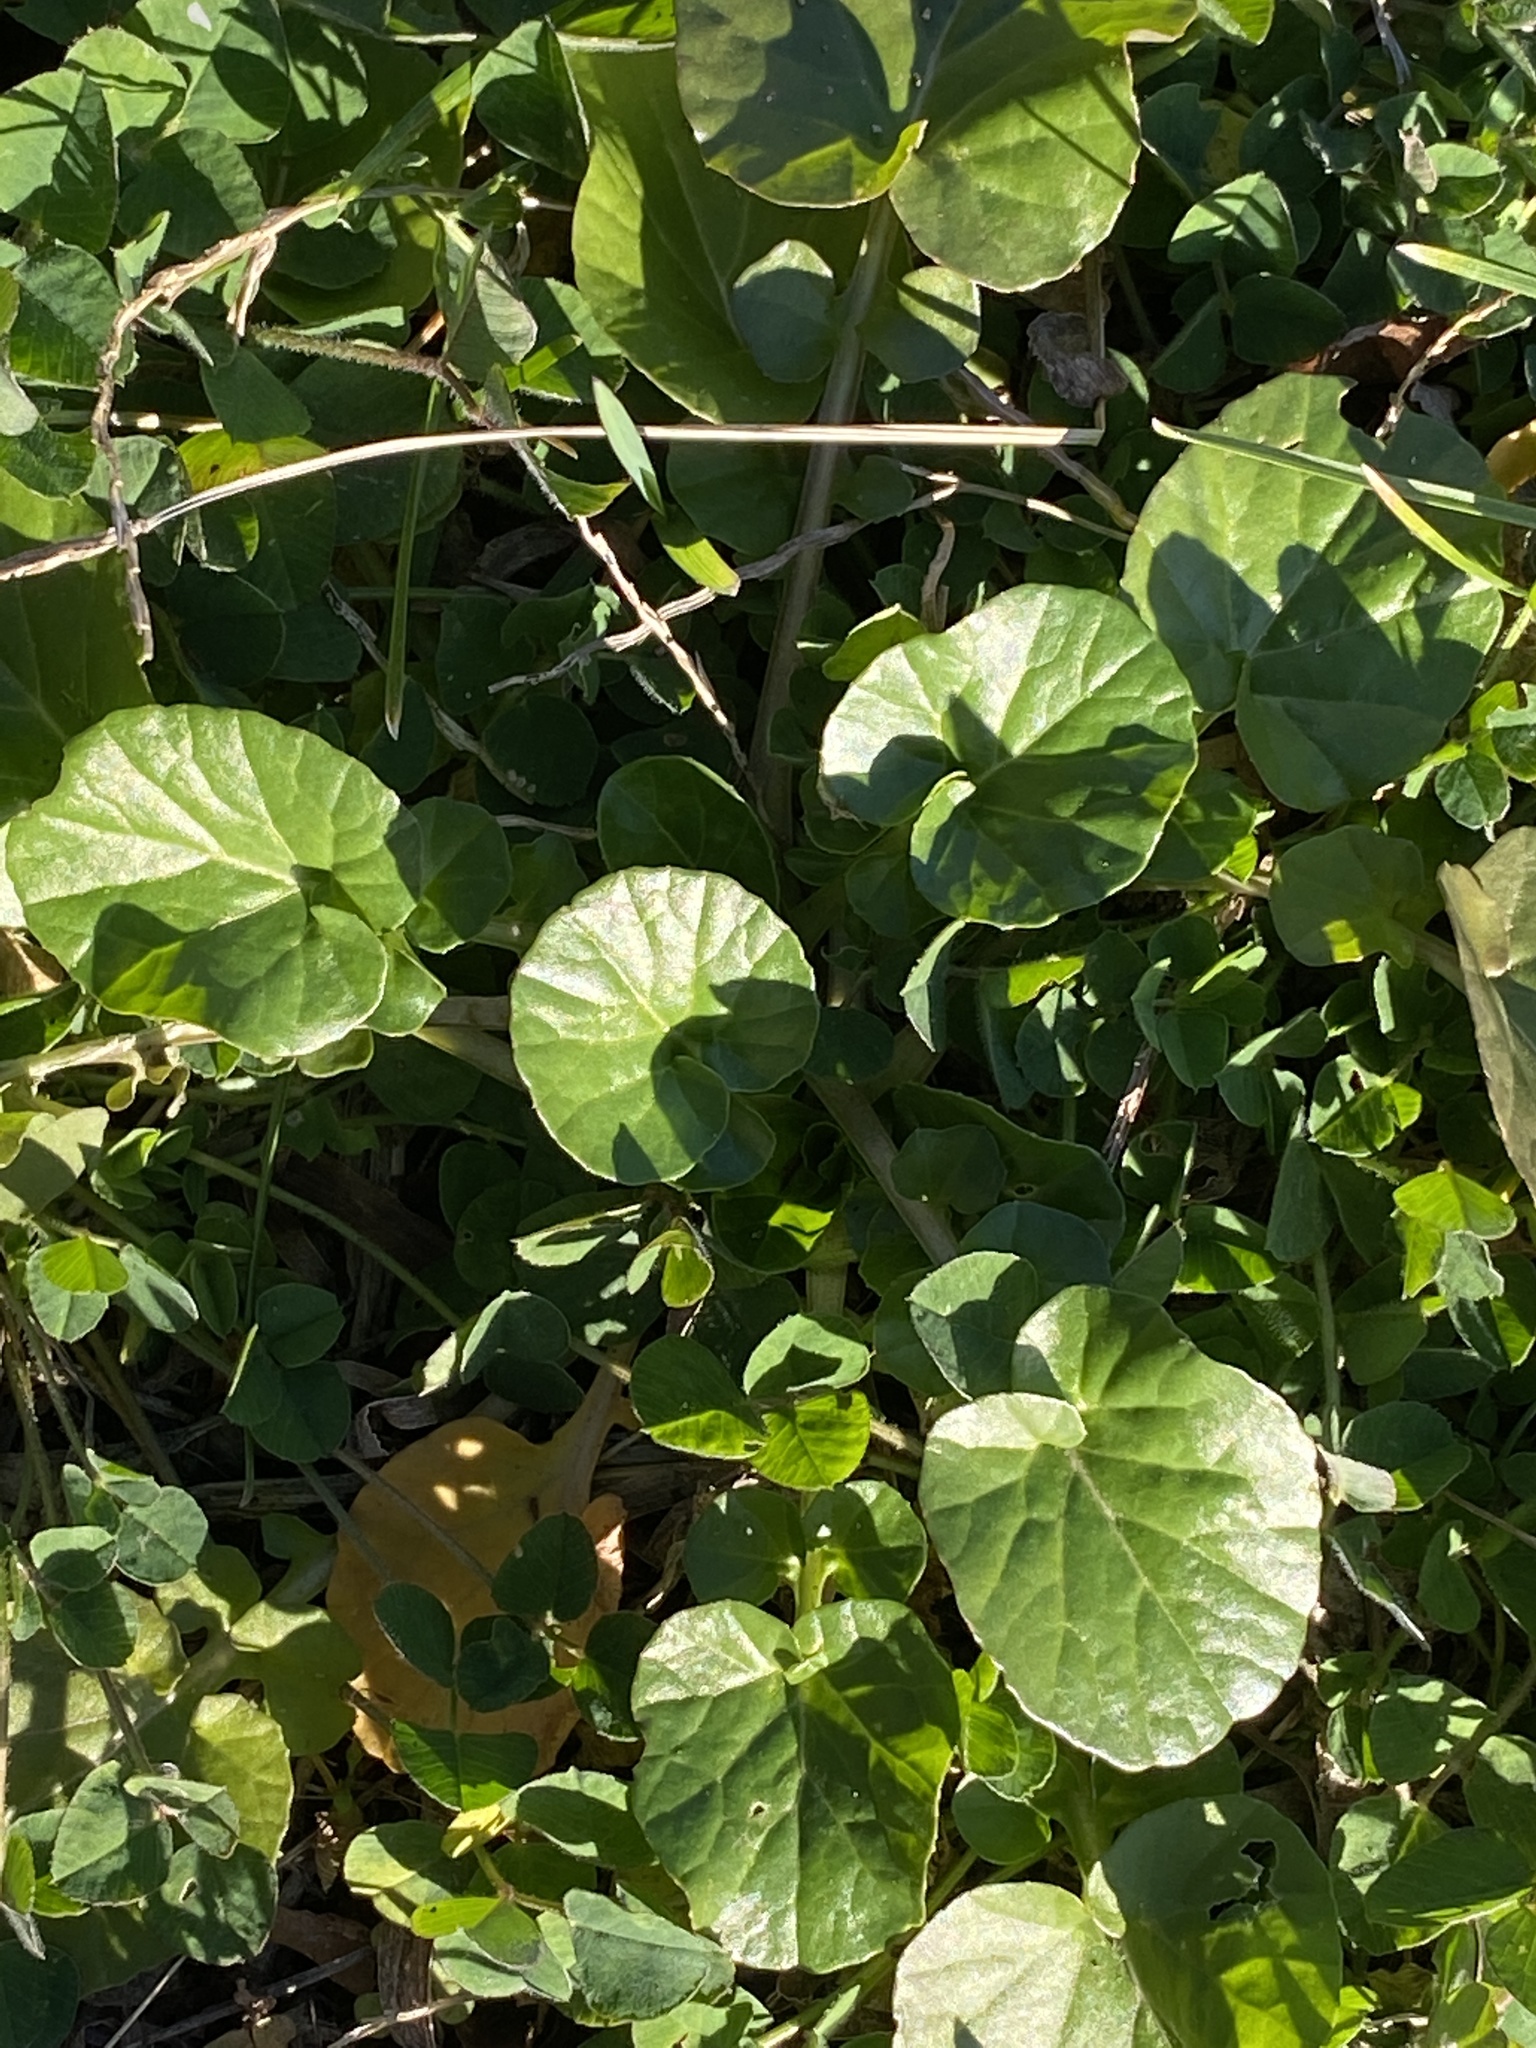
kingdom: Plantae
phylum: Tracheophyta
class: Magnoliopsida
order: Brassicales
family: Brassicaceae
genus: Barbarea
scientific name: Barbarea vulgaris
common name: Cressy-greens
